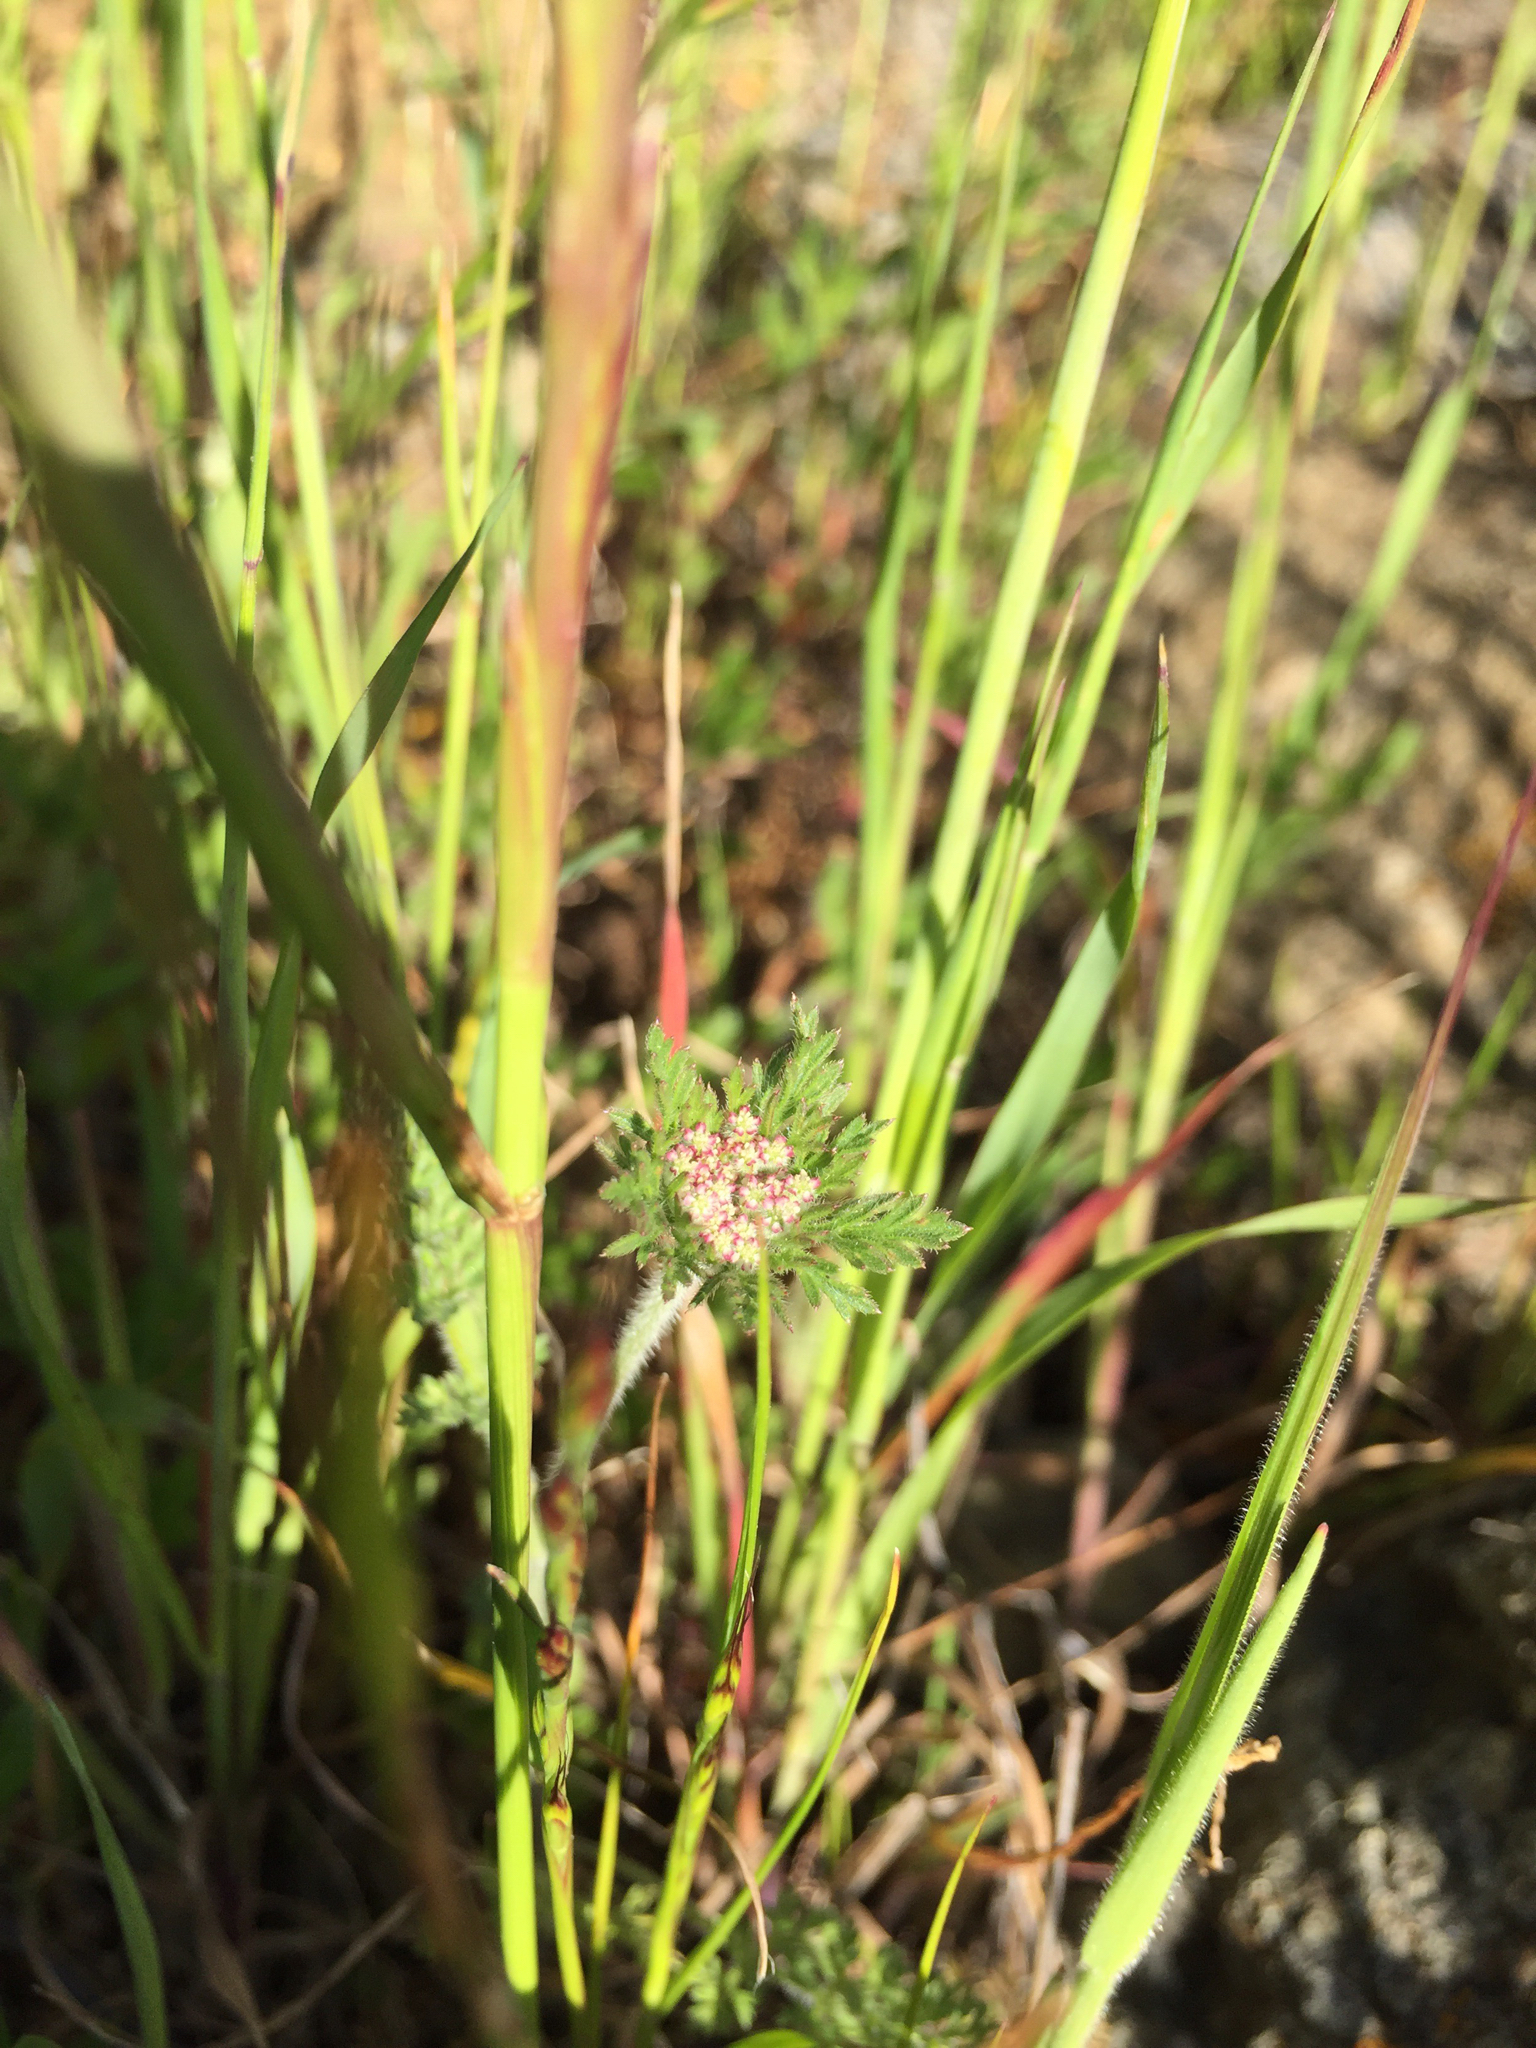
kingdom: Plantae
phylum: Tracheophyta
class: Magnoliopsida
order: Apiales
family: Apiaceae
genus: Daucus
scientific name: Daucus pusillus
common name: Southwest wild carrot
